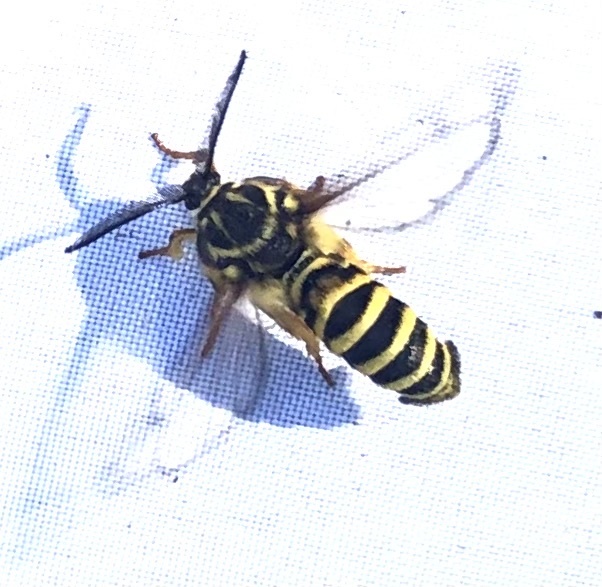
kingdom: Animalia
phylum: Arthropoda
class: Insecta
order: Lepidoptera
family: Sesiidae
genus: Pennisetia
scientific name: Pennisetia marginatum
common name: Raspberry crown borer
